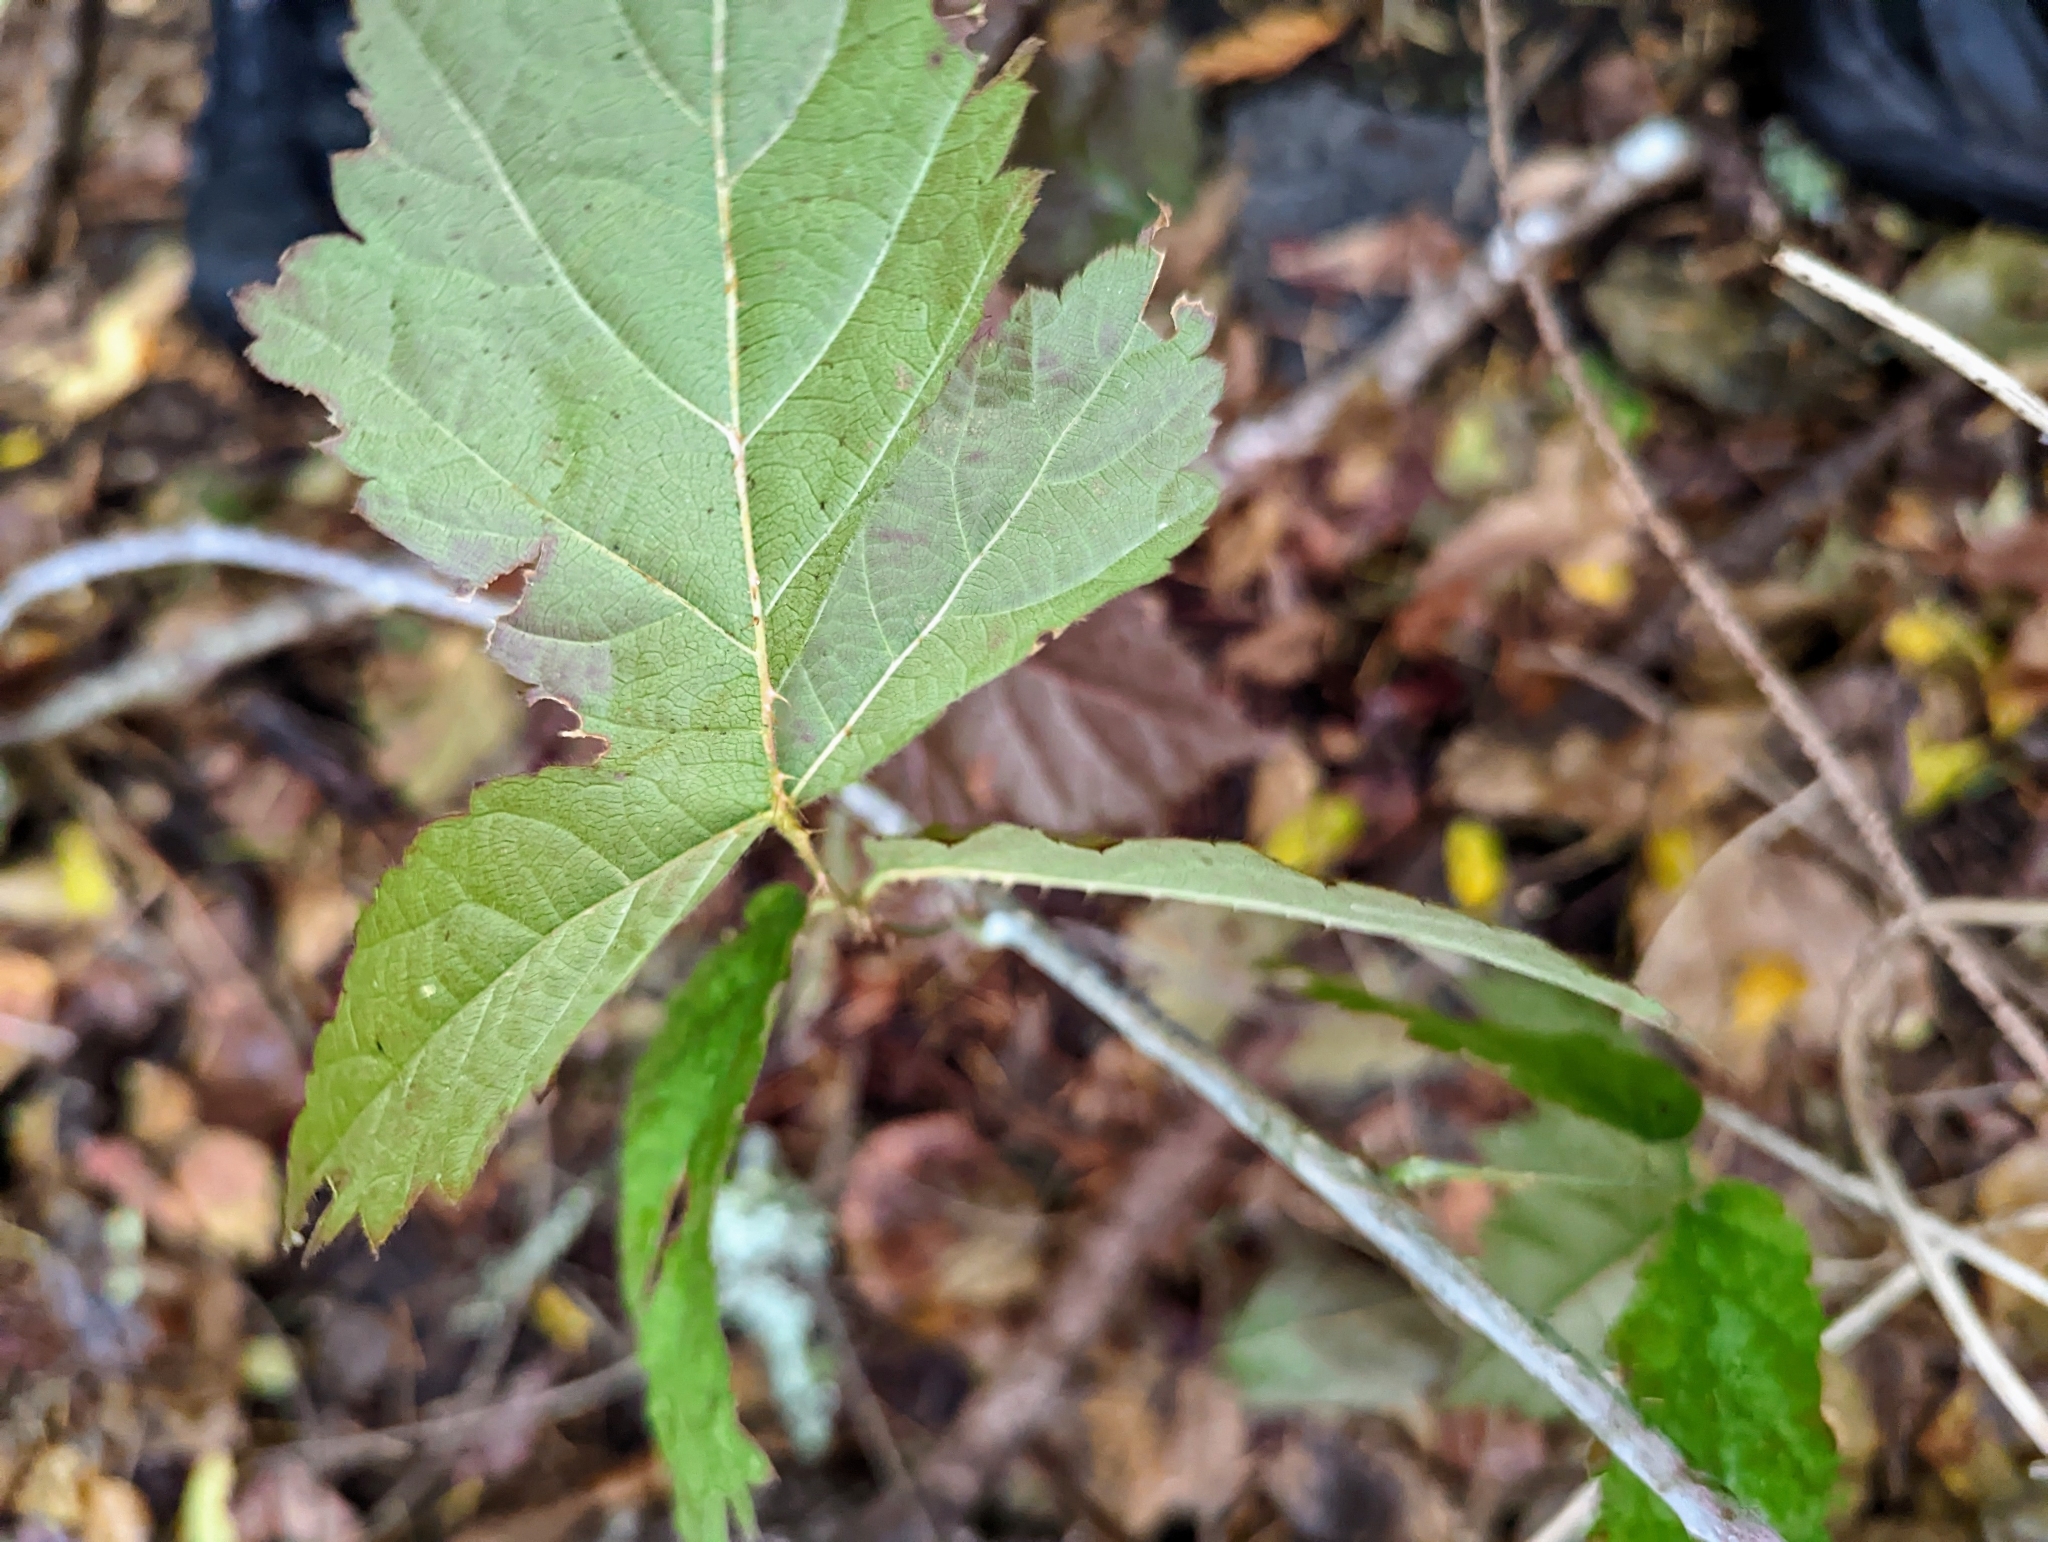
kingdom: Plantae
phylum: Tracheophyta
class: Magnoliopsida
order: Rosales
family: Rosaceae
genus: Rubus
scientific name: Rubus ursinus
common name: Pacific blackberry
